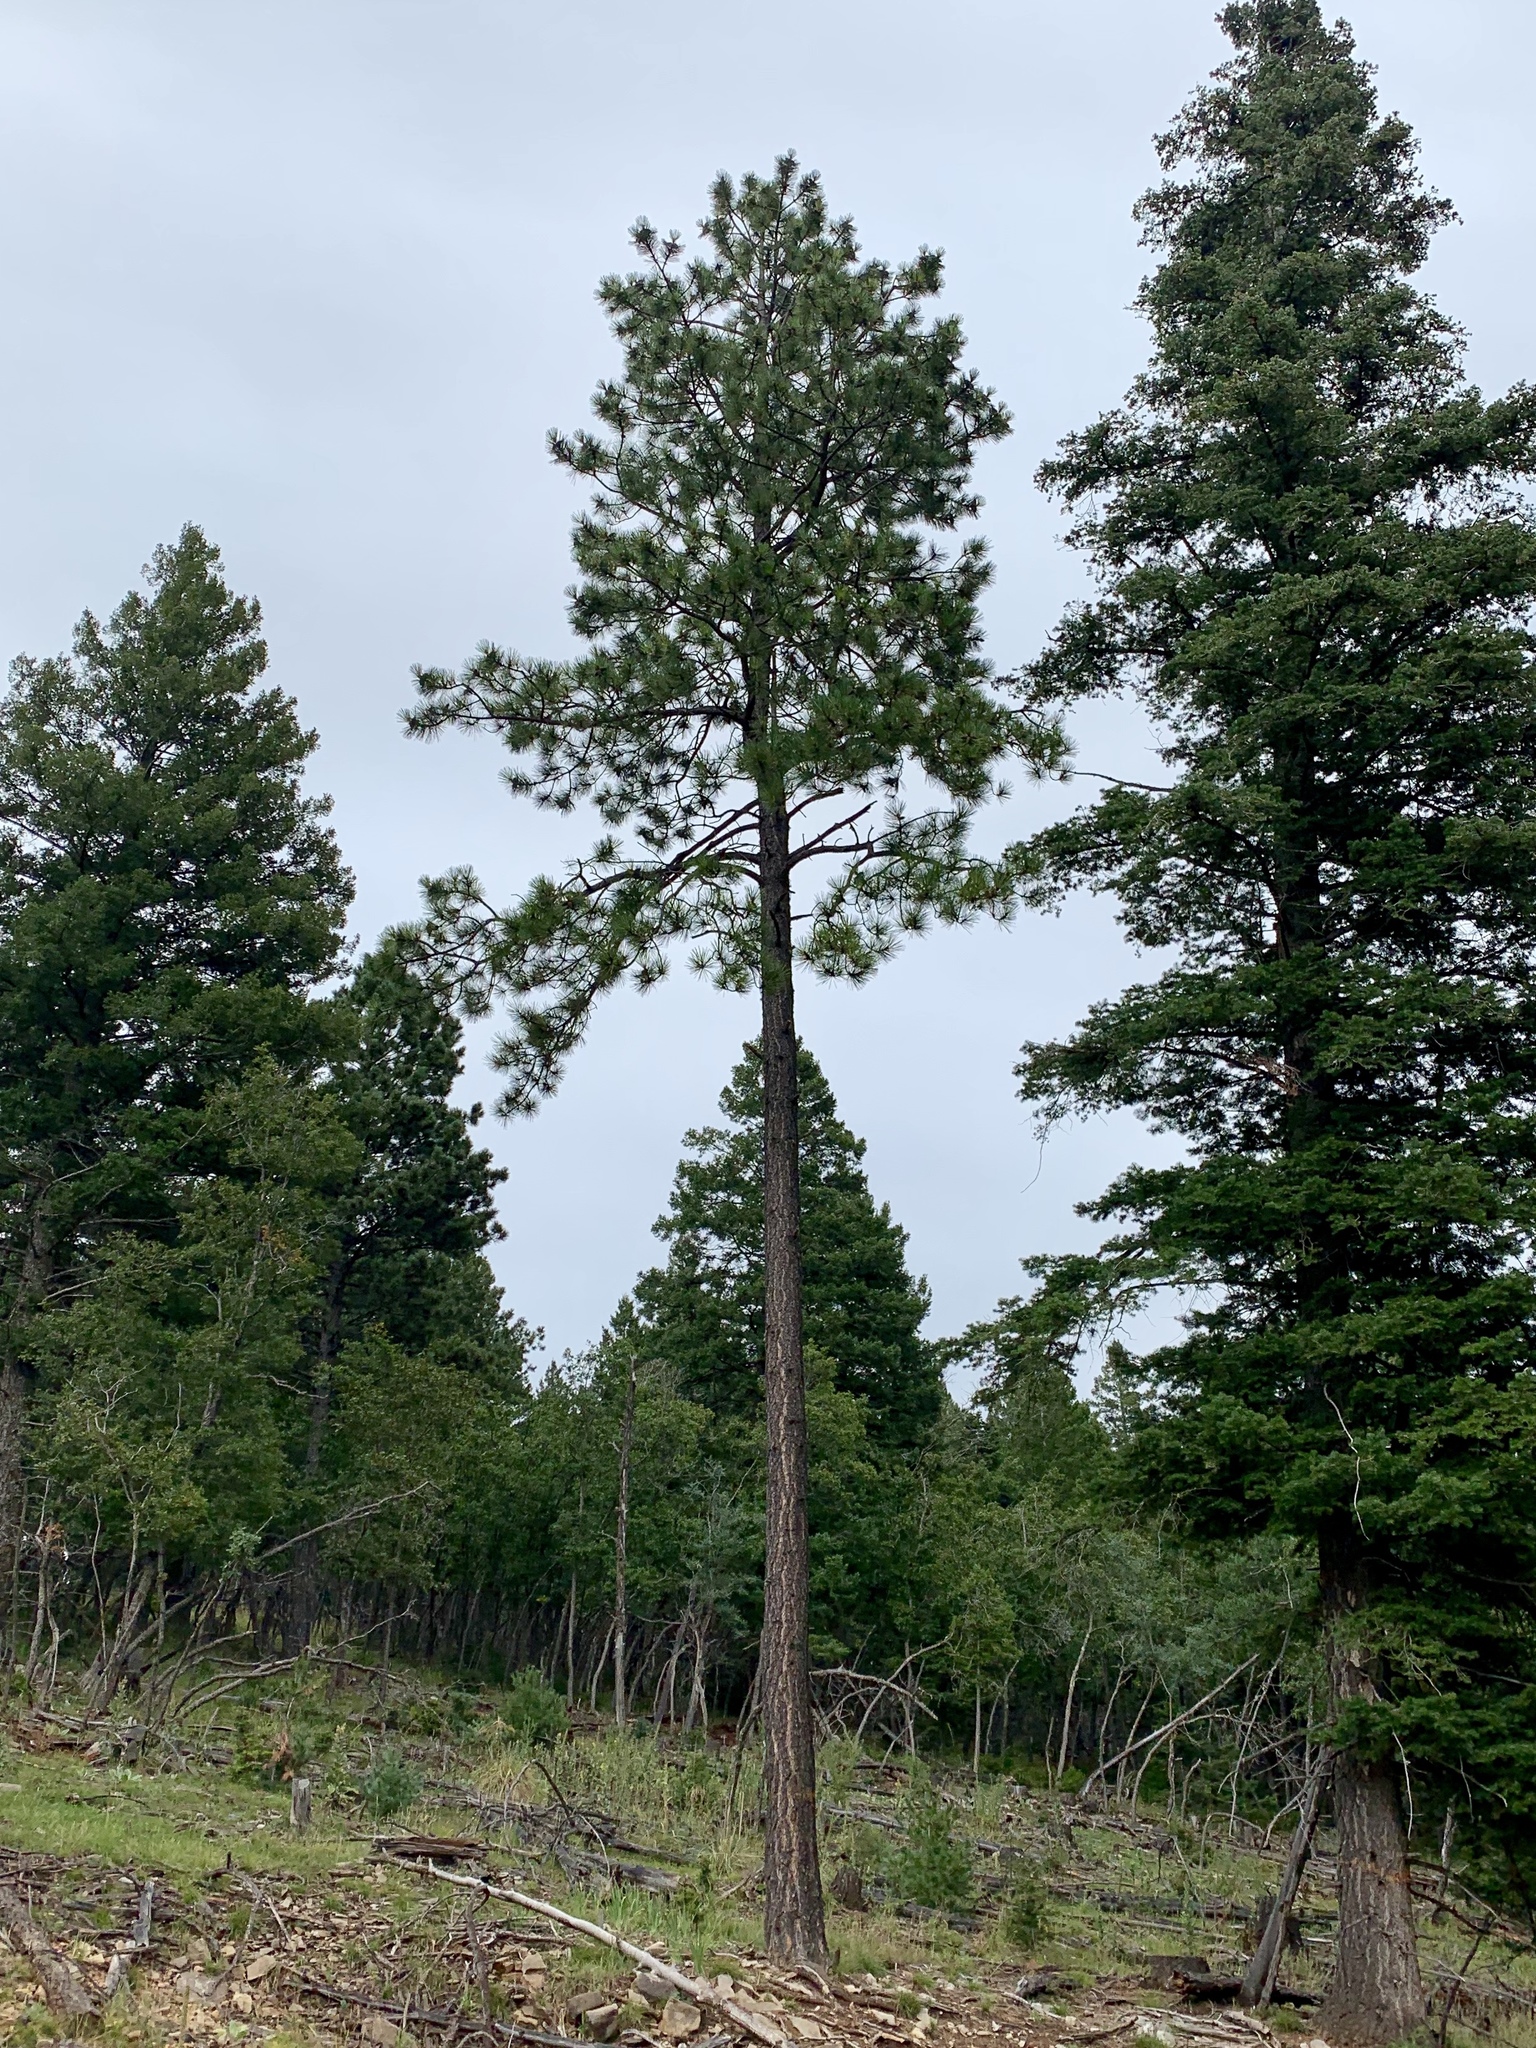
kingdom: Plantae
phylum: Tracheophyta
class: Pinopsida
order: Pinales
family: Pinaceae
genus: Pinus
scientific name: Pinus ponderosa
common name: Western yellow-pine
